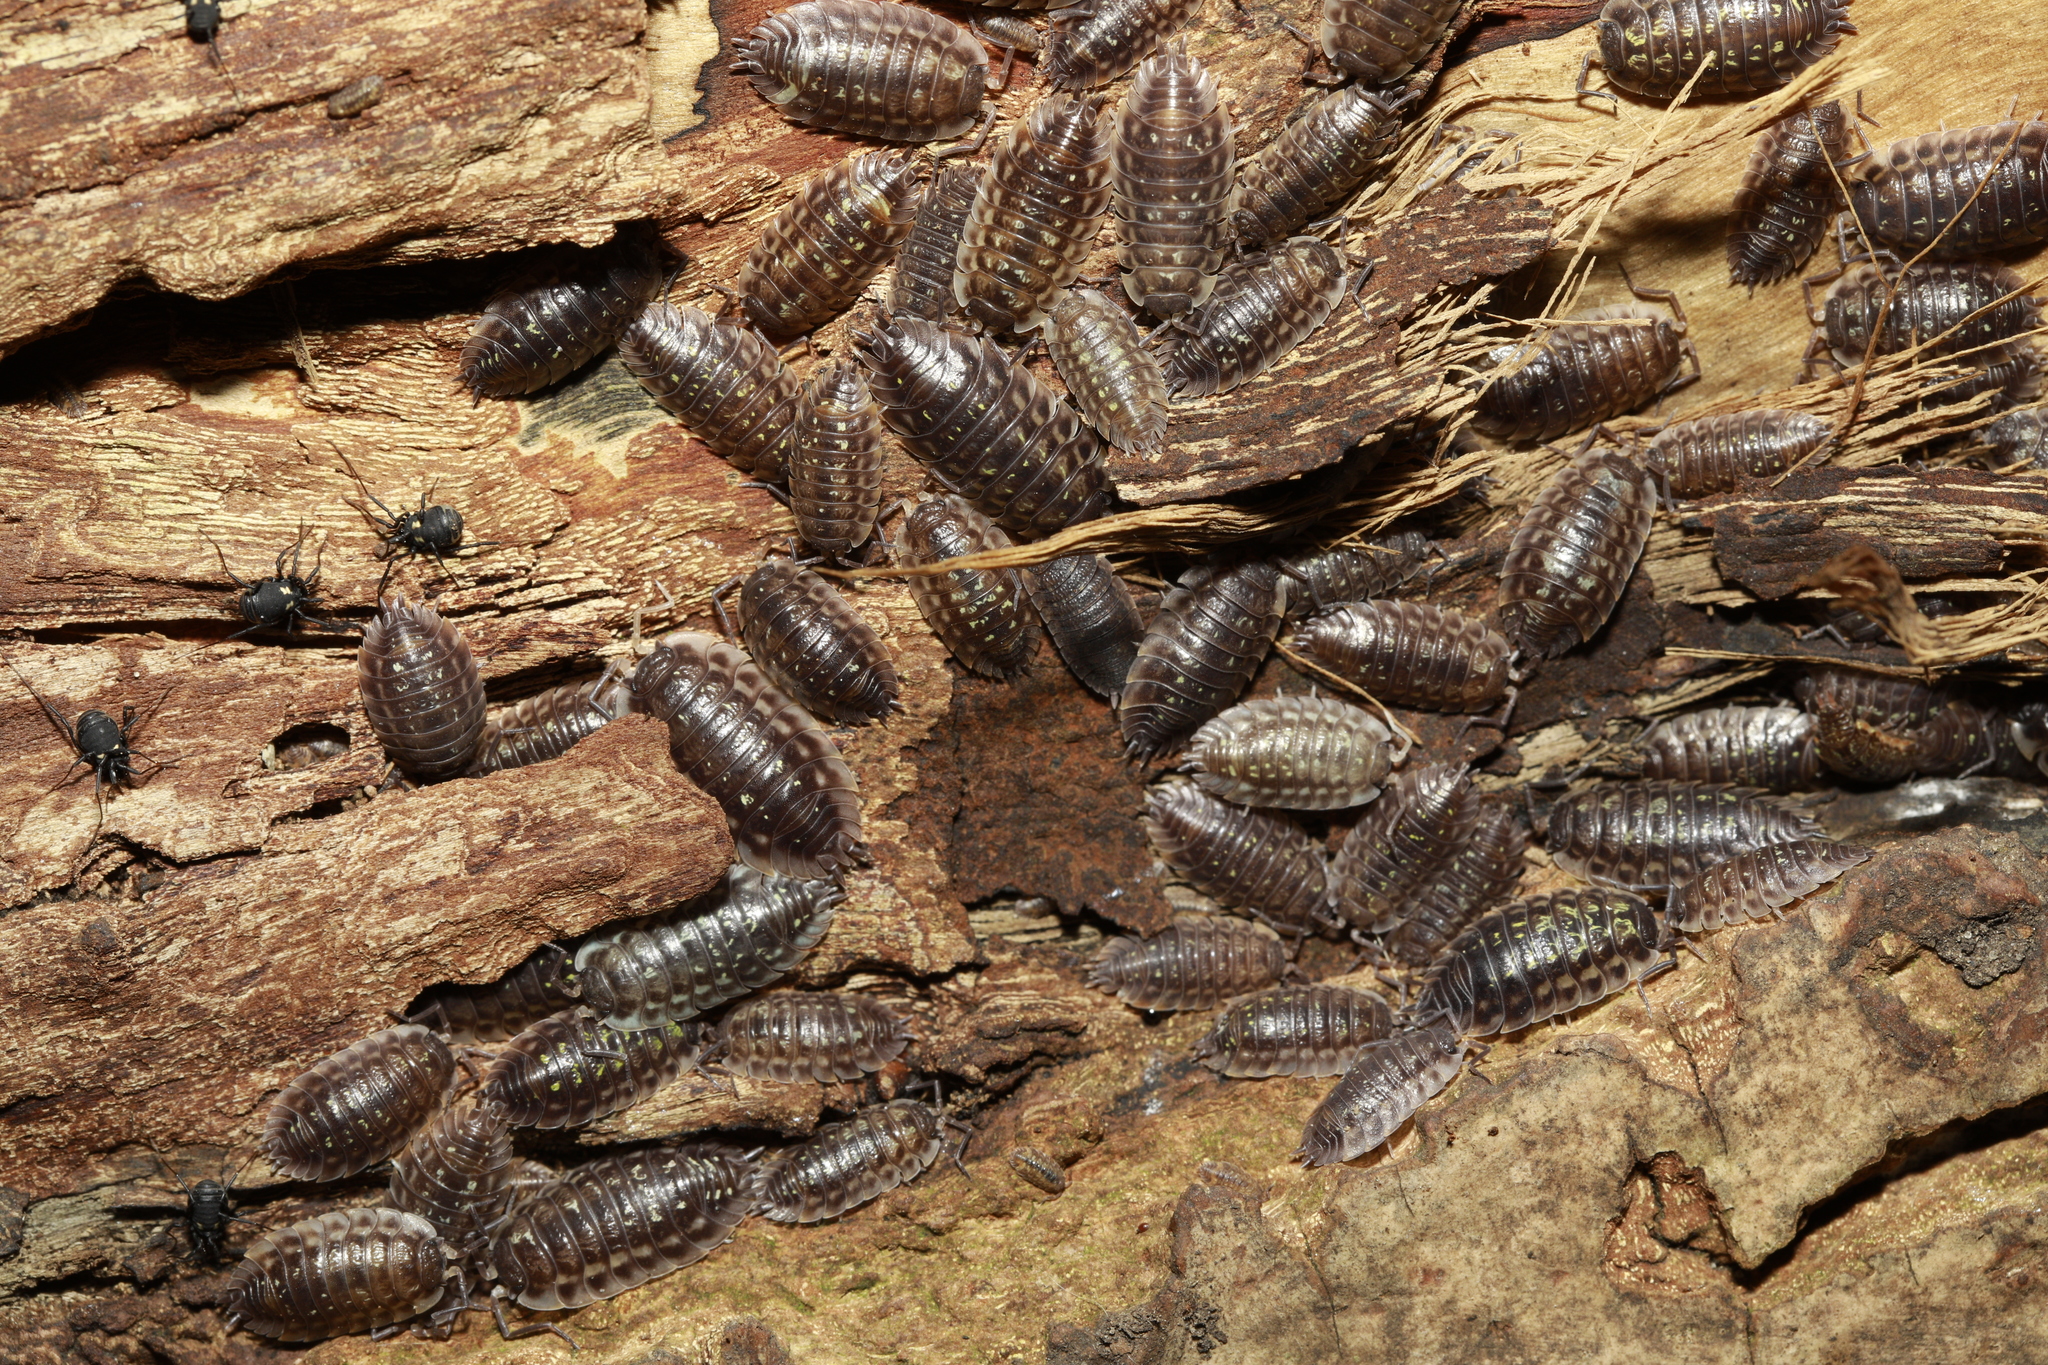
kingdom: Animalia
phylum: Arthropoda
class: Malacostraca
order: Isopoda
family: Oniscidae
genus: Oniscus
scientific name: Oniscus asellus
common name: Common shiny woodlouse
